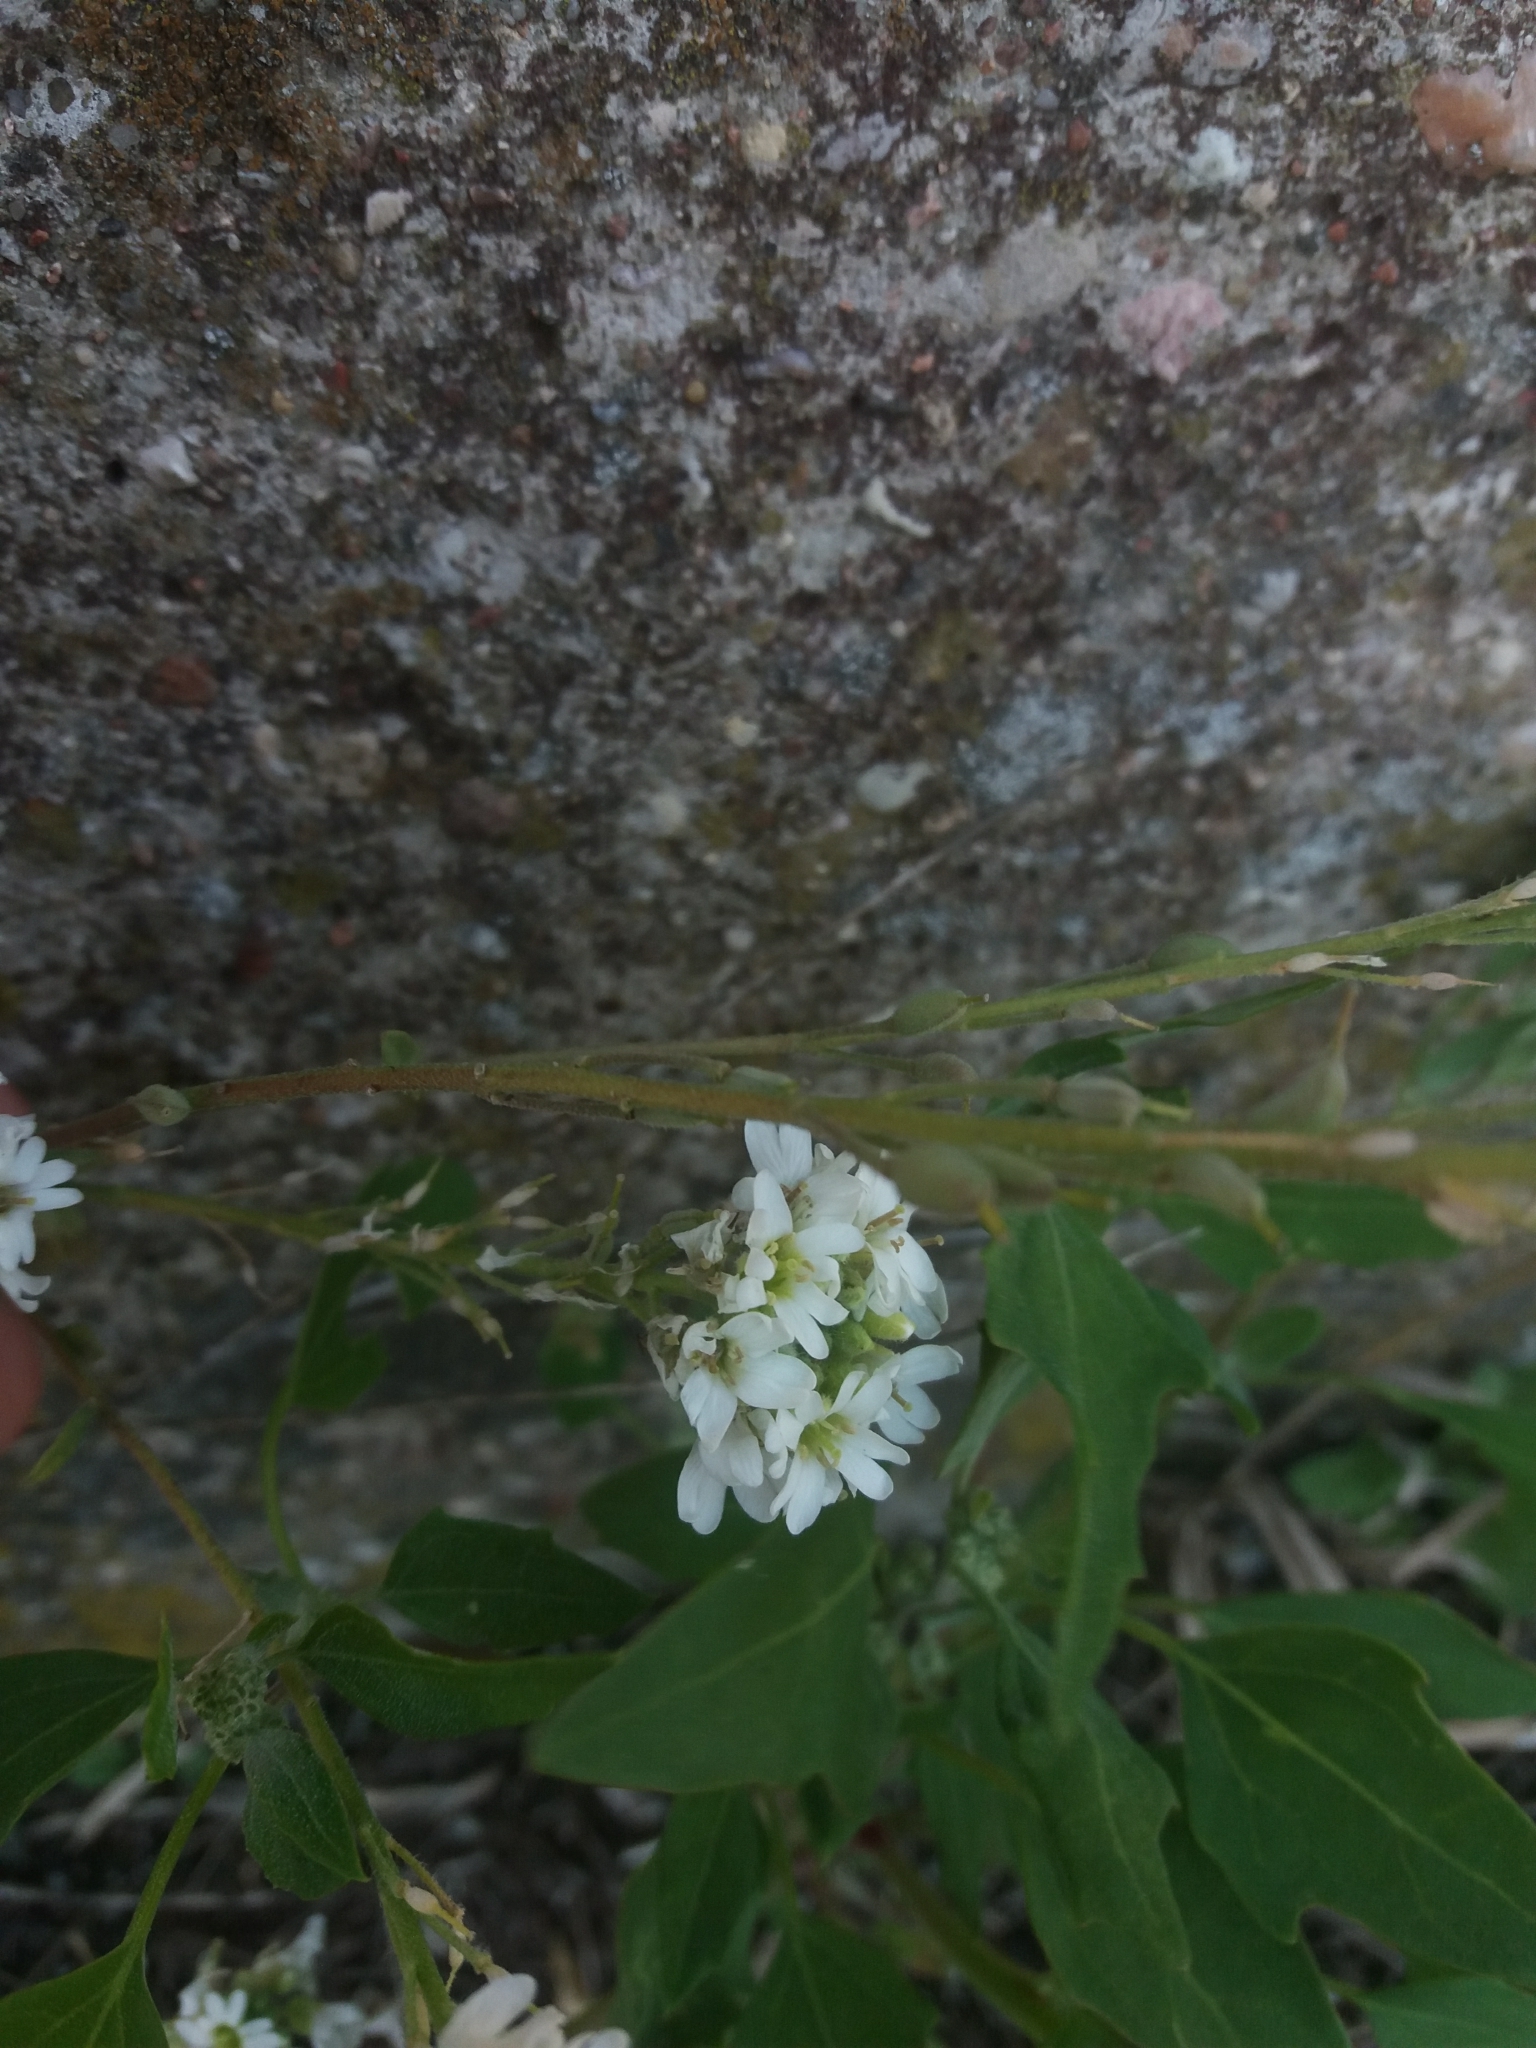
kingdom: Plantae
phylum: Tracheophyta
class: Magnoliopsida
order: Brassicales
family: Brassicaceae
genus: Berteroa
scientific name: Berteroa incana
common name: Hoary alison
